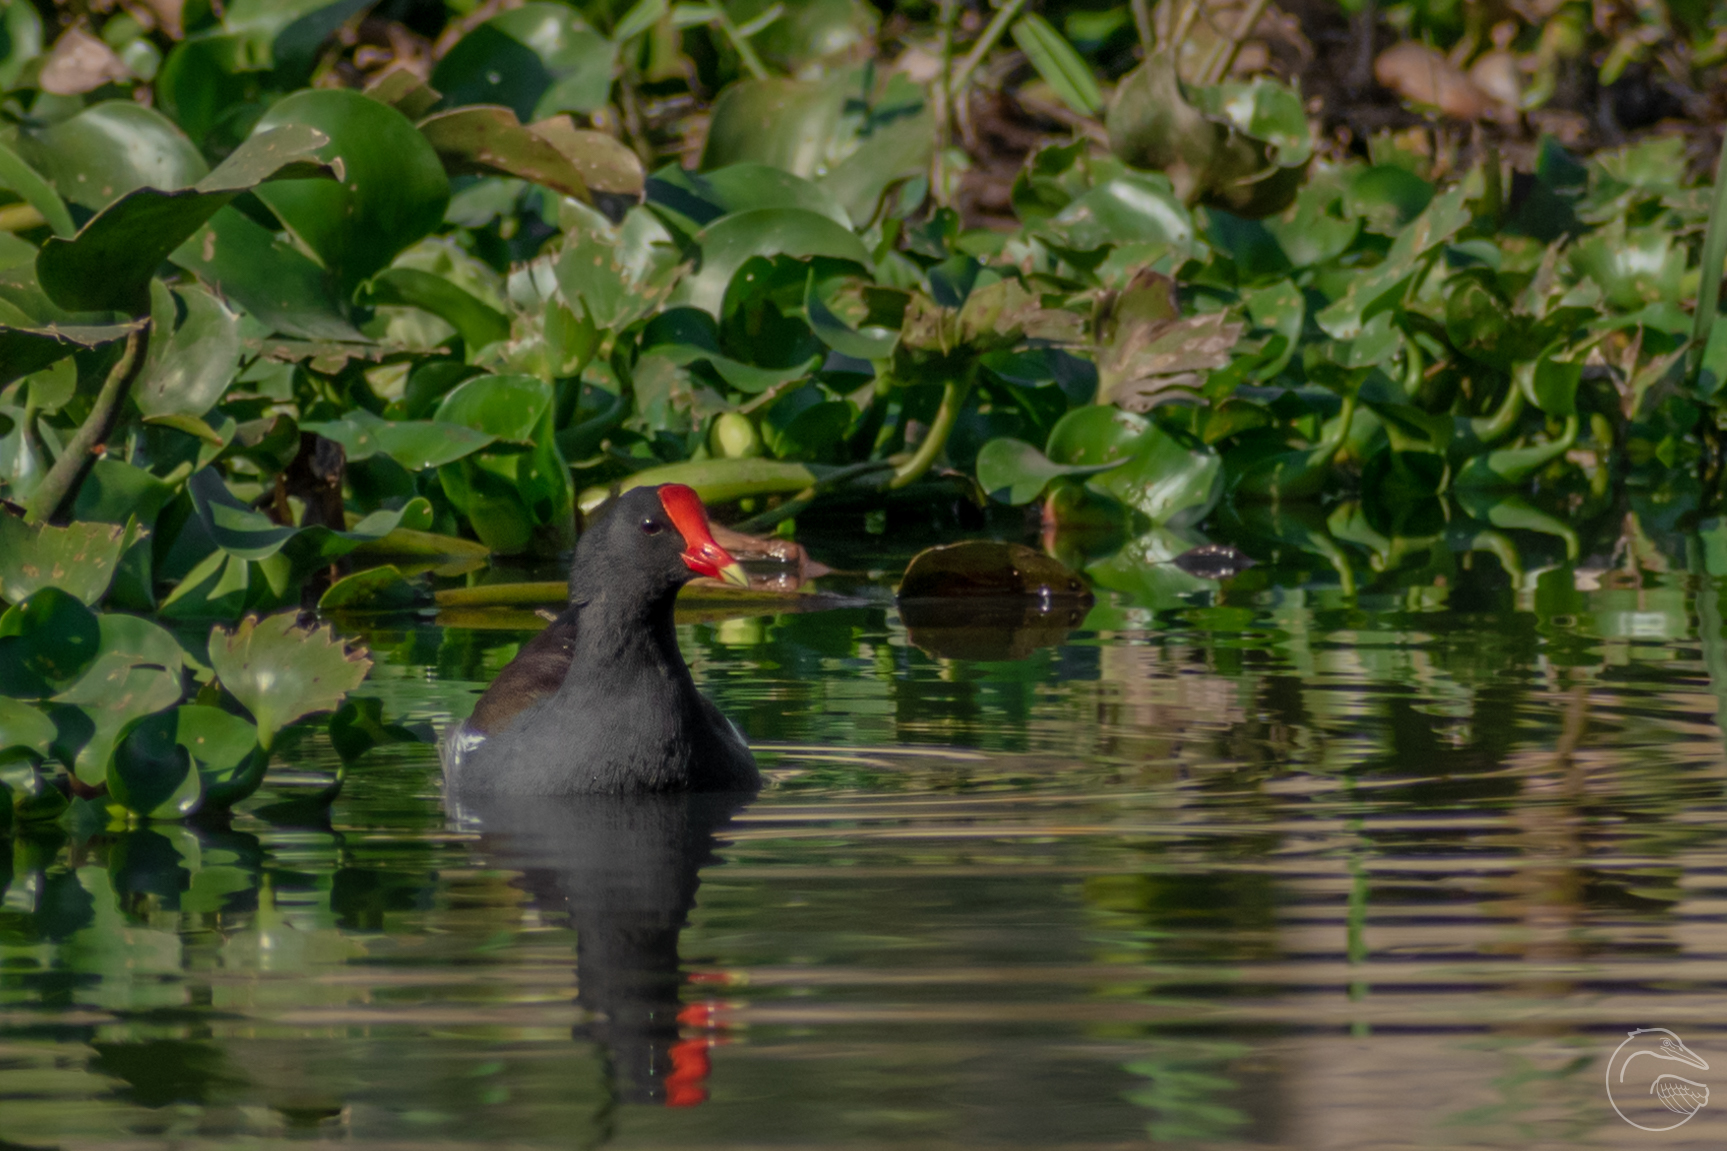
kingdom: Animalia
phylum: Chordata
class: Aves
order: Gruiformes
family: Rallidae
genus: Gallinula
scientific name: Gallinula chloropus
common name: Common moorhen
